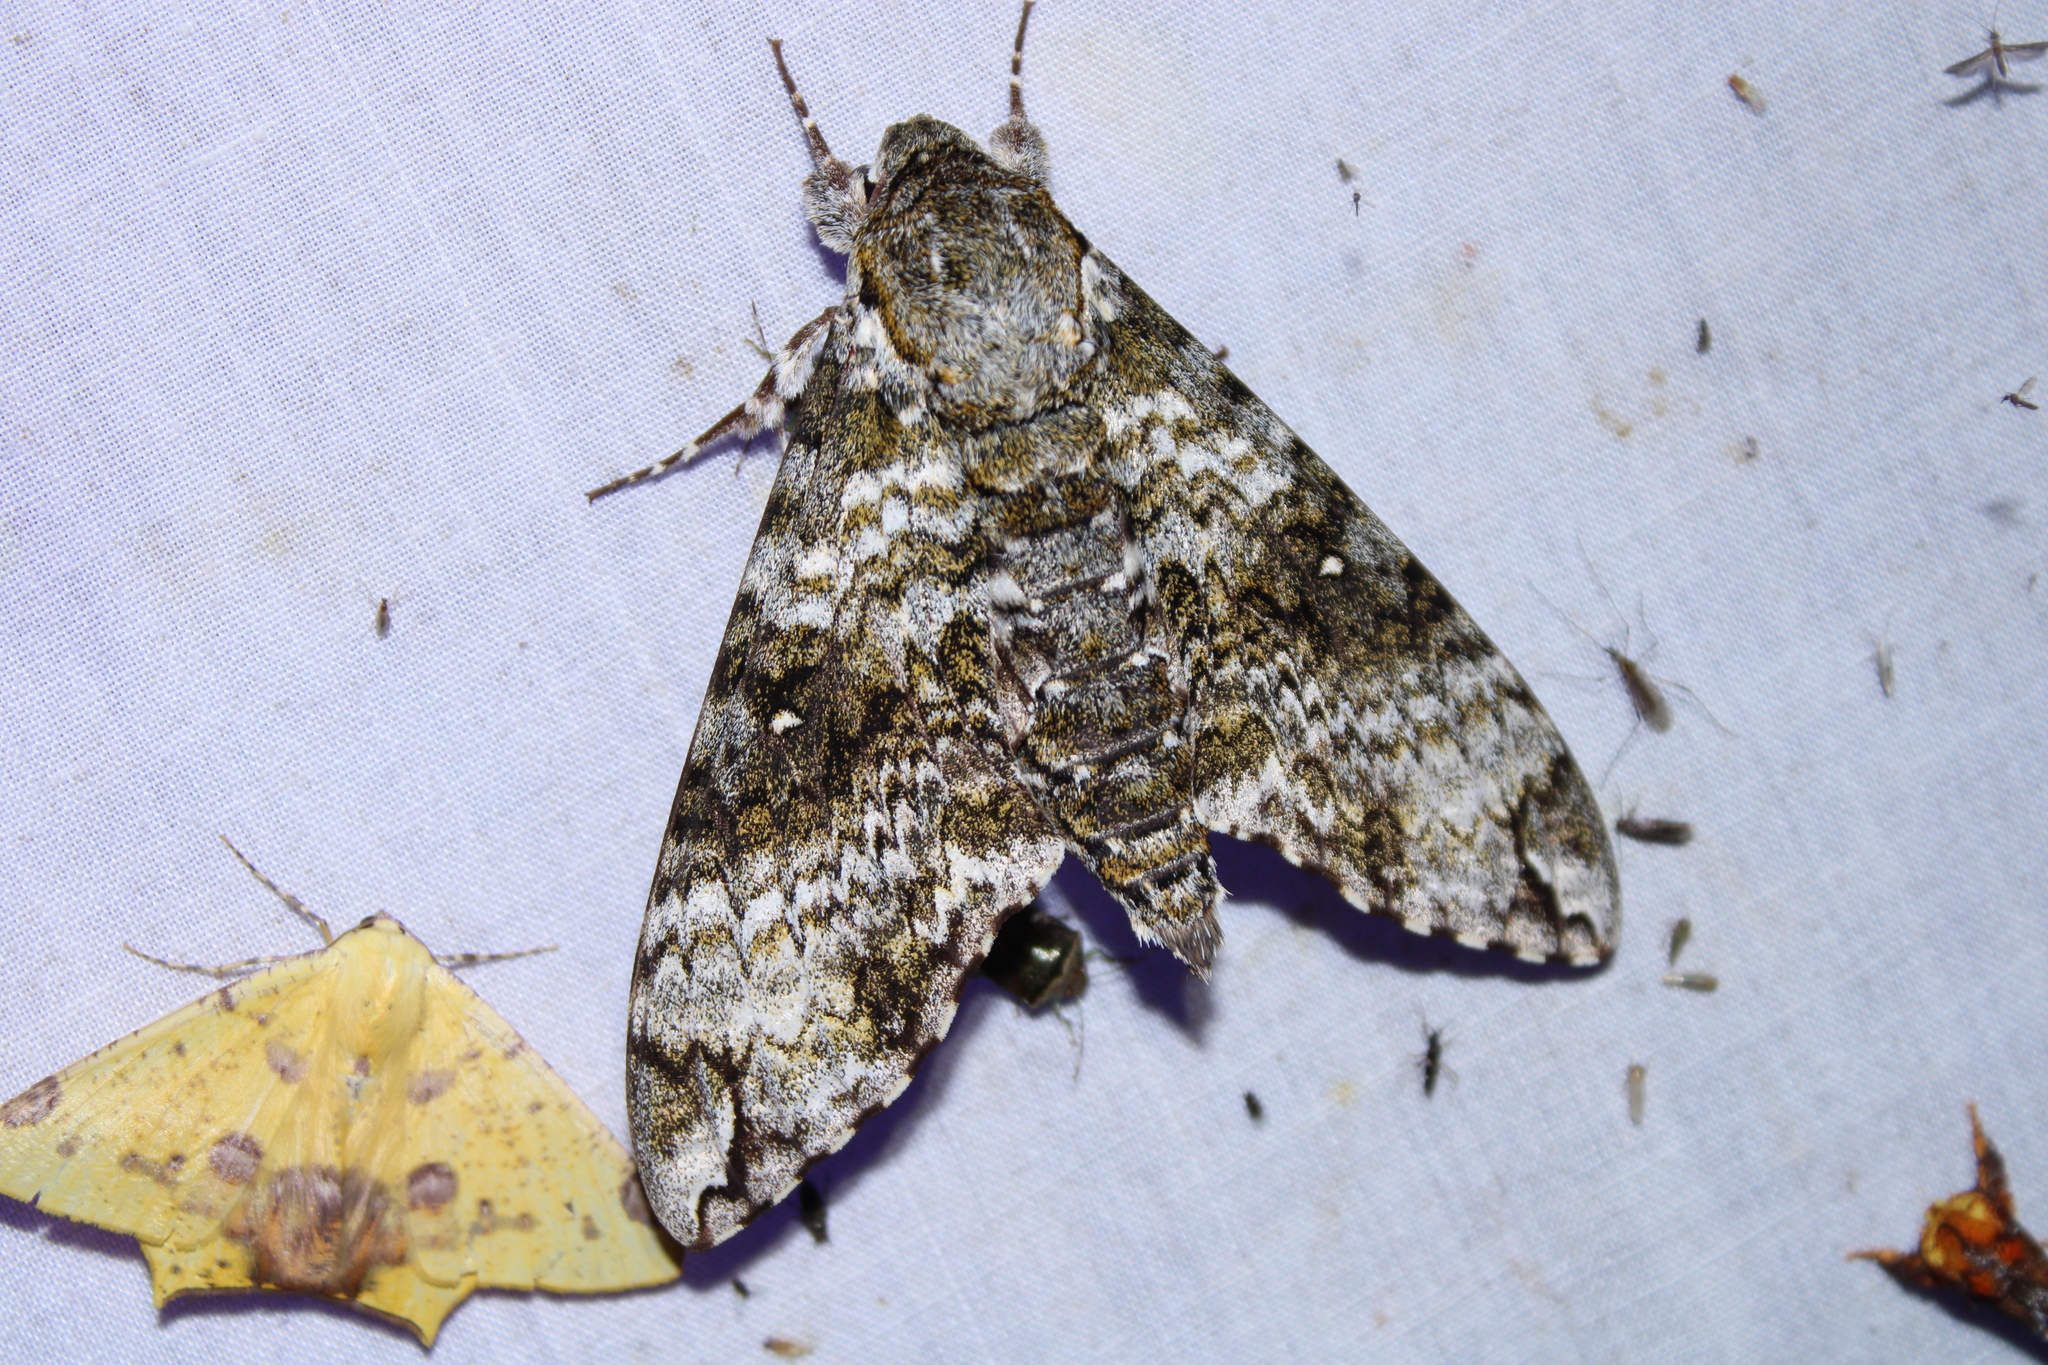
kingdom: Animalia
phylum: Arthropoda
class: Insecta
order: Lepidoptera
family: Sphingidae
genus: Manduca
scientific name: Manduca schausi
